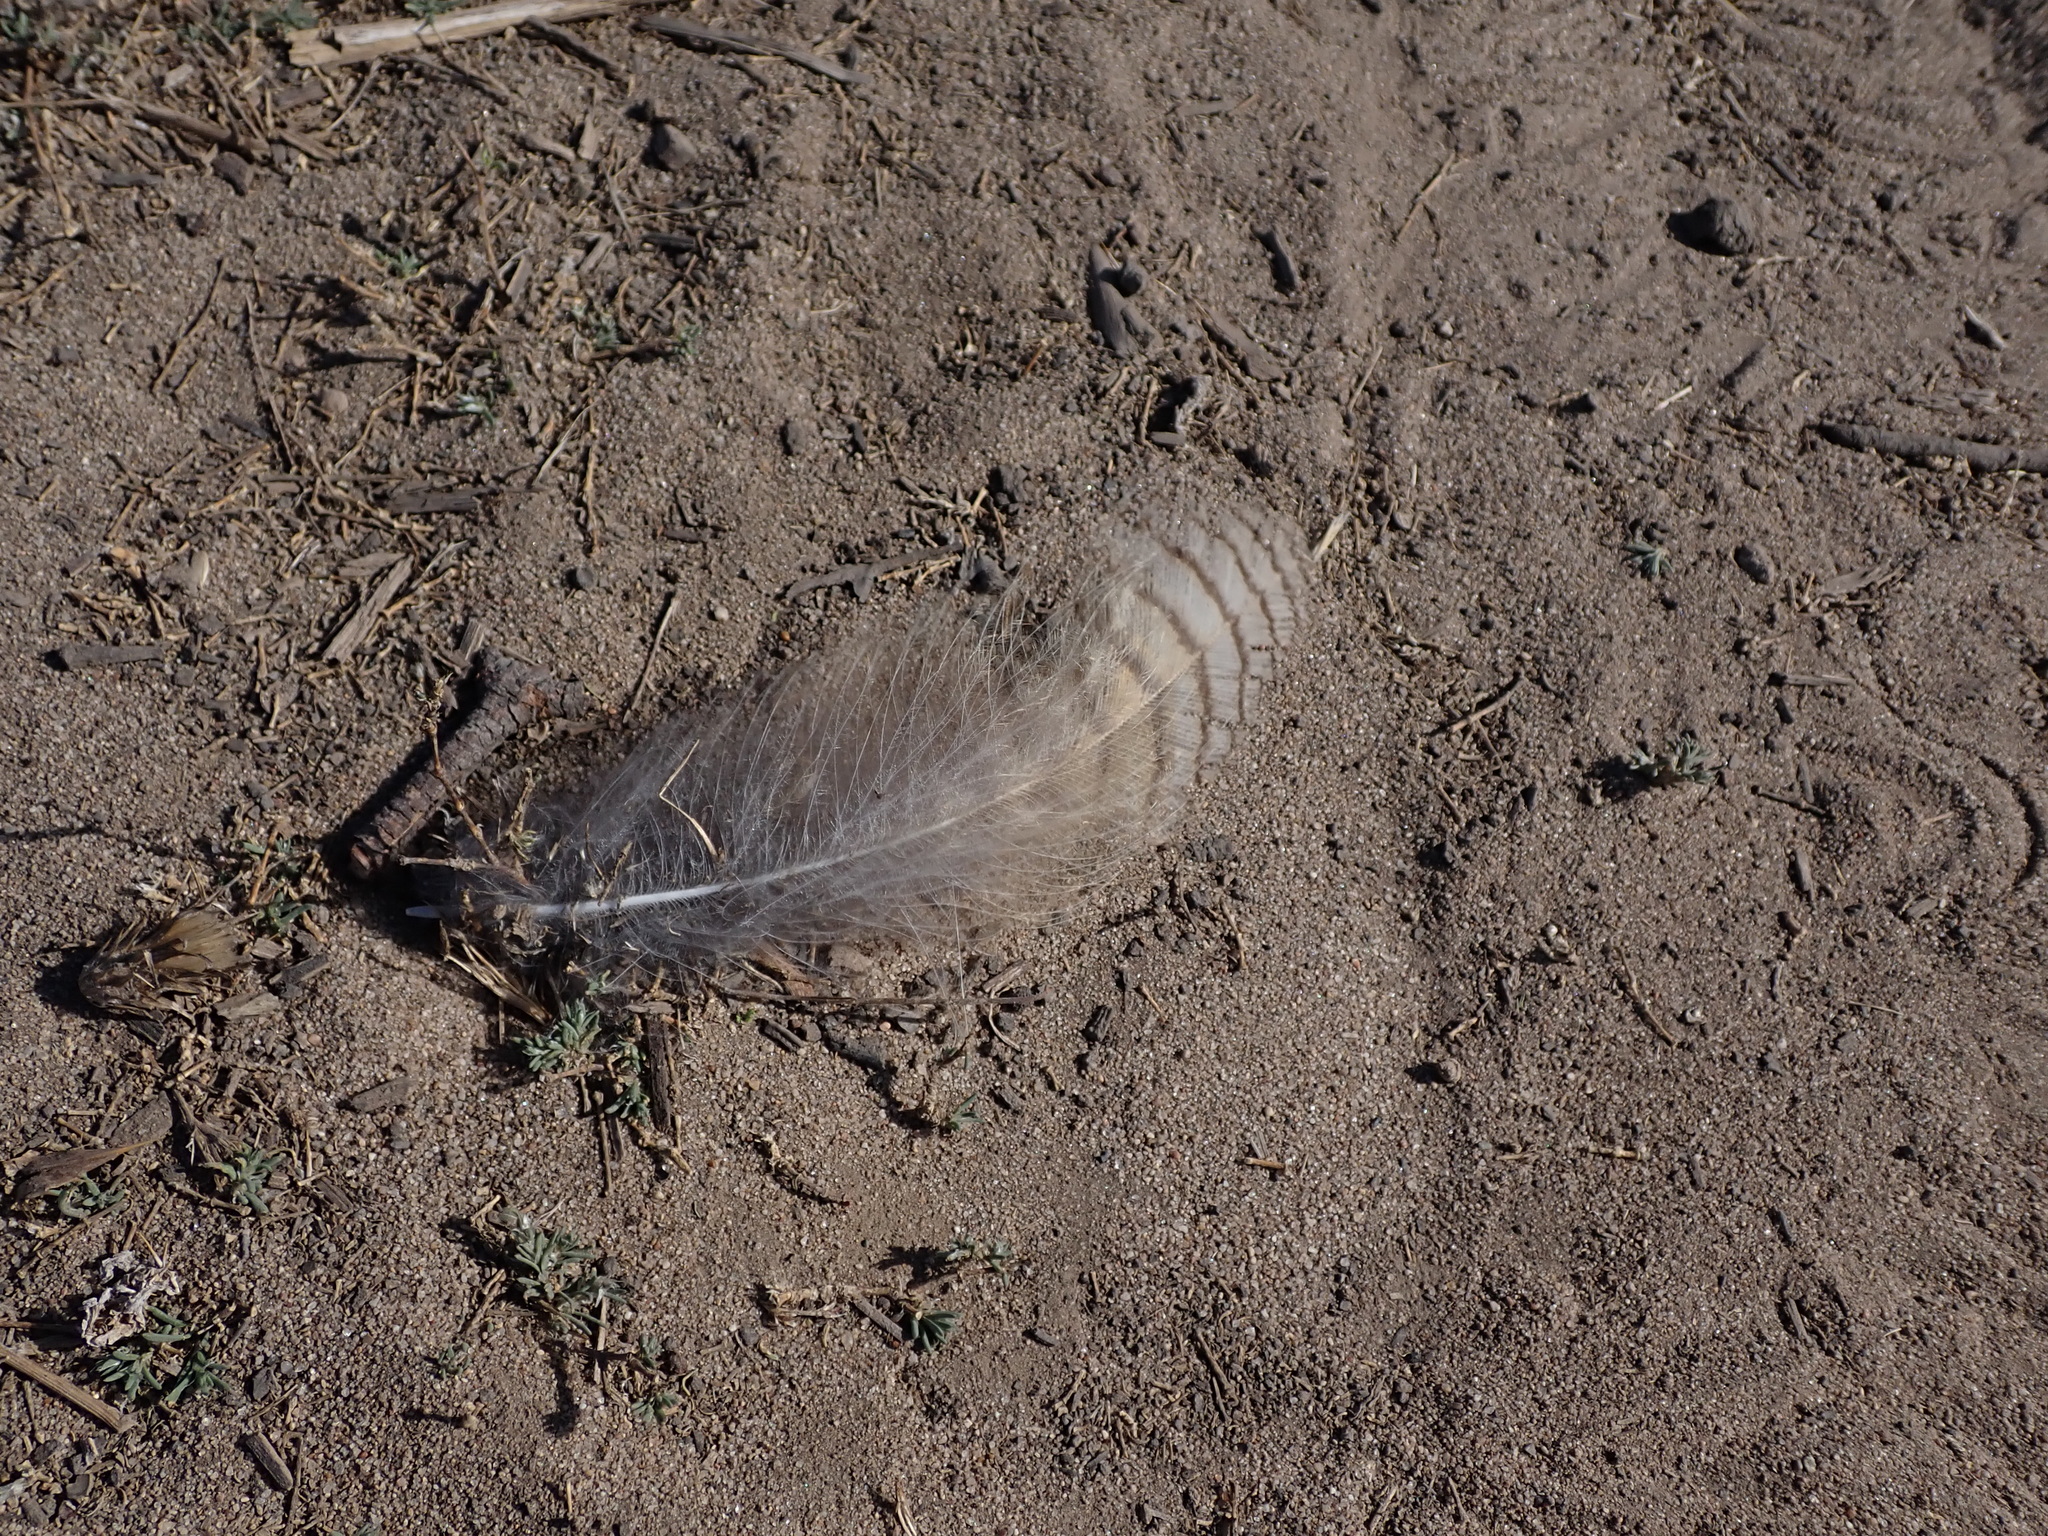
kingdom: Animalia
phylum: Chordata
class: Aves
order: Strigiformes
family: Strigidae
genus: Bubo
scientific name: Bubo virginianus
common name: Great horned owl
